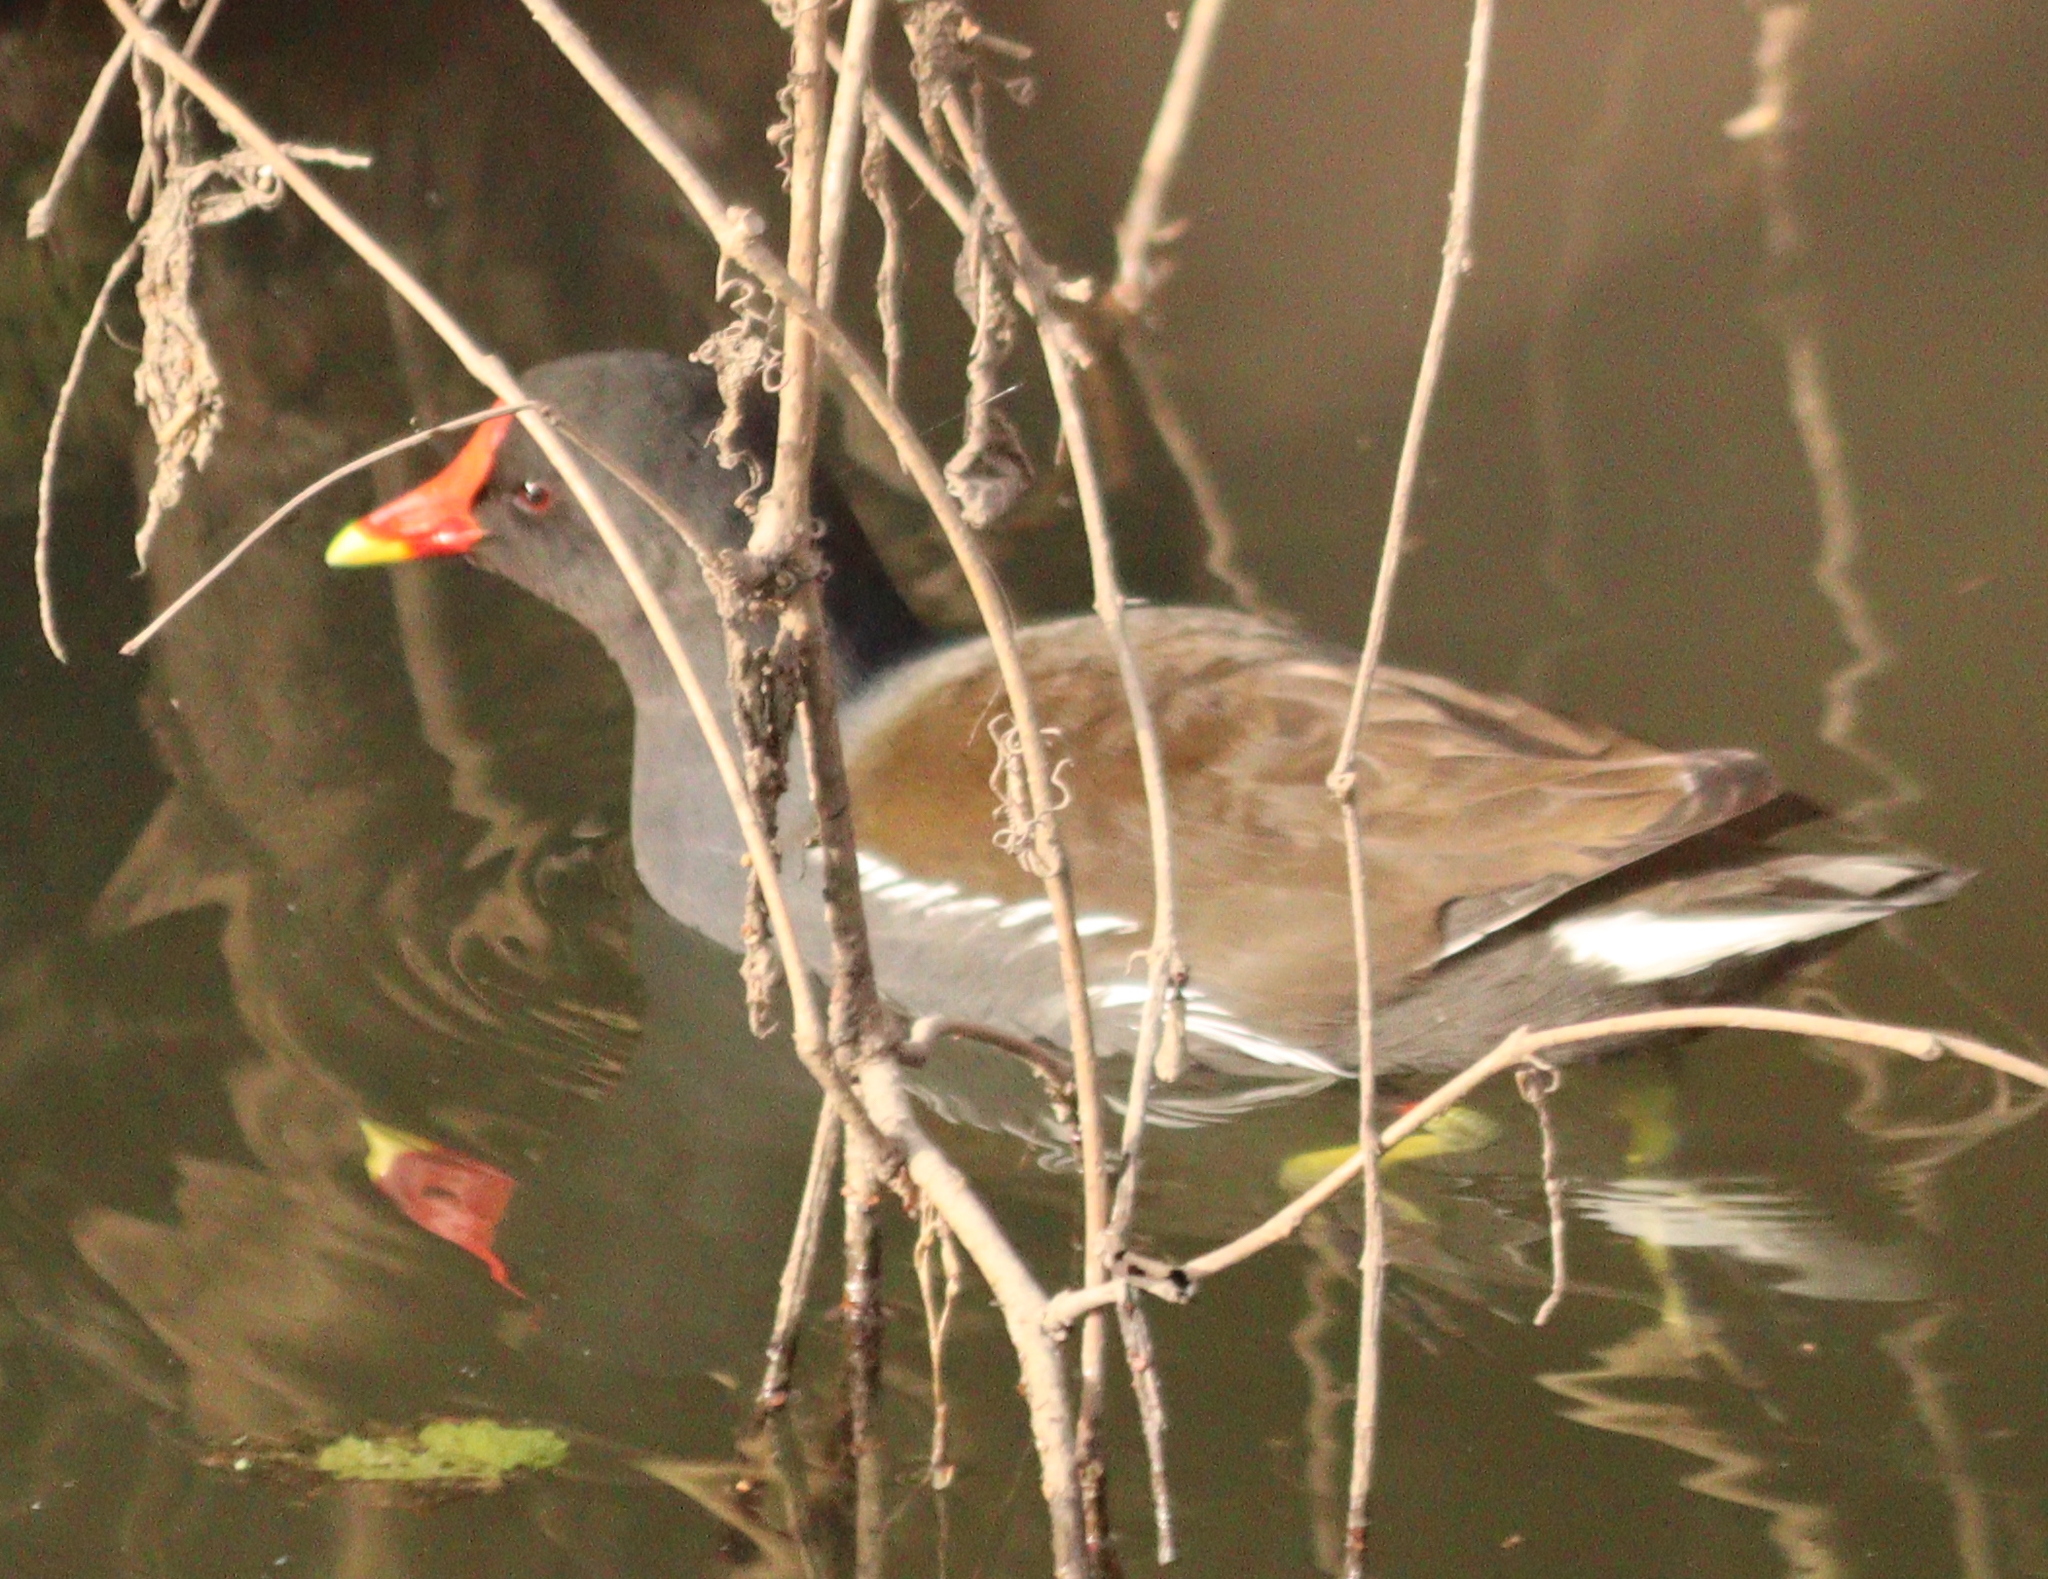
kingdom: Animalia
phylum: Chordata
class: Aves
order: Gruiformes
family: Rallidae
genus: Gallinula
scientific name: Gallinula chloropus
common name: Common moorhen
